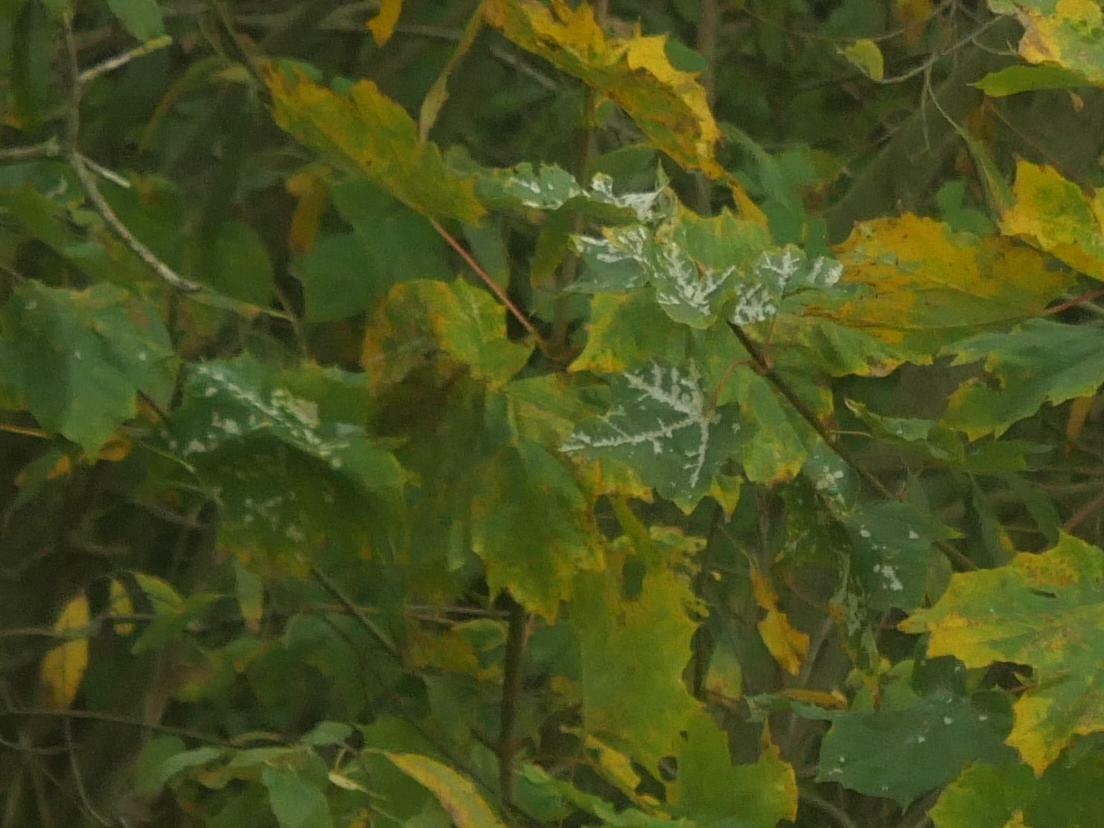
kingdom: Fungi
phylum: Ascomycota
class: Leotiomycetes
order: Helotiales
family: Erysiphaceae
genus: Sawadaea
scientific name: Sawadaea tulasnei
